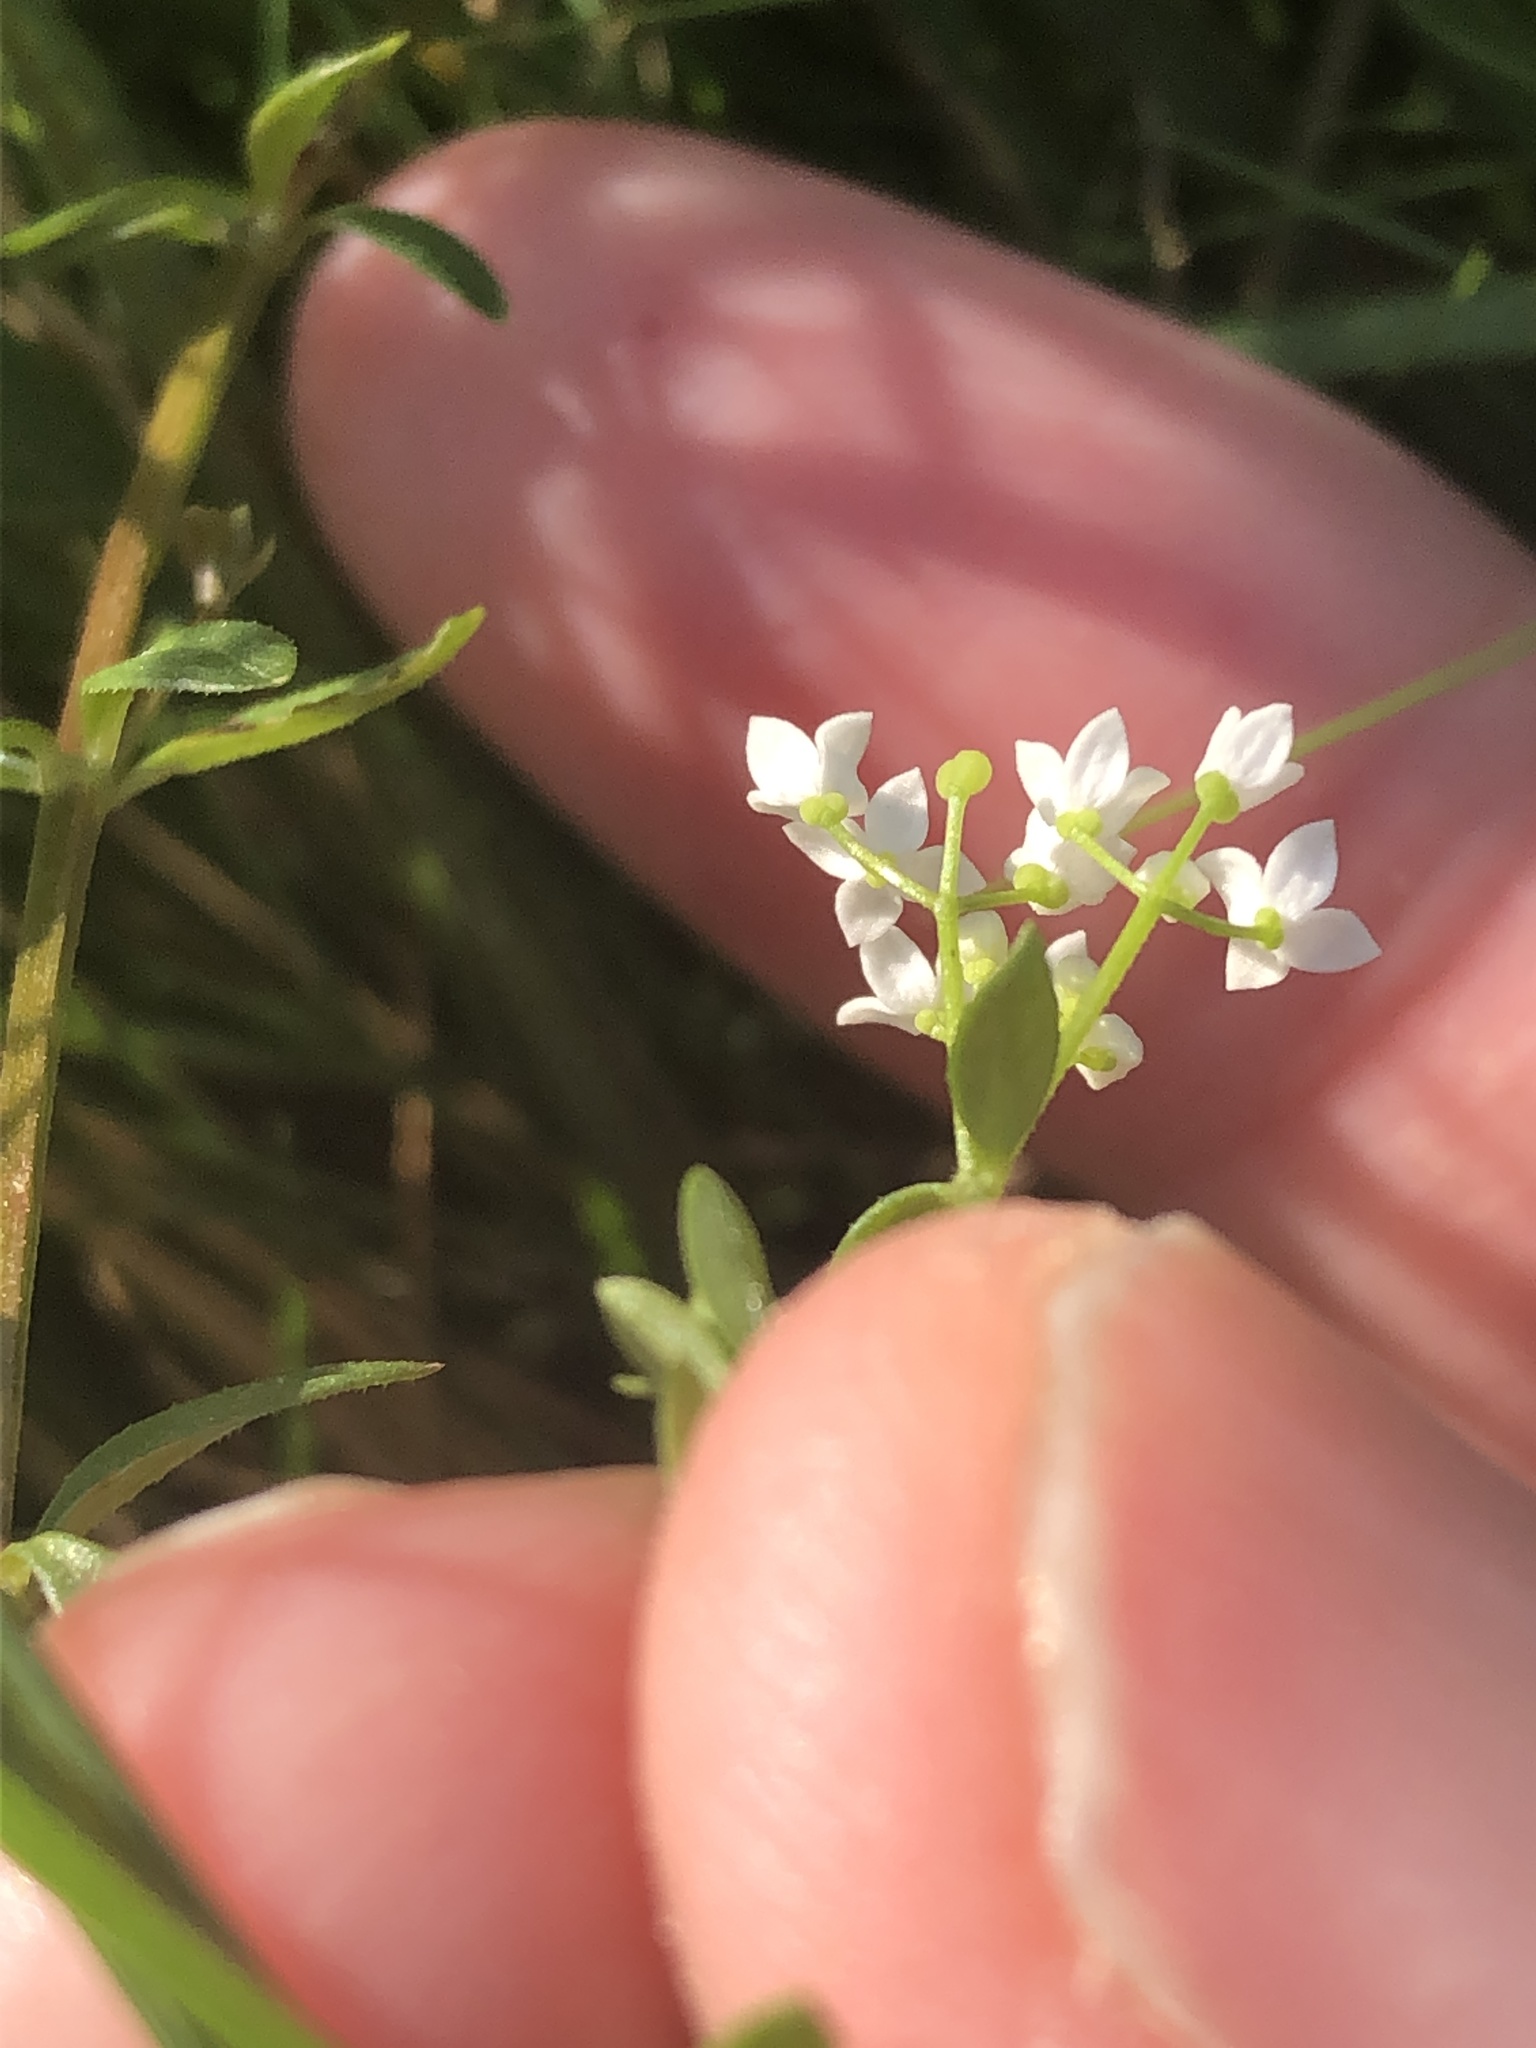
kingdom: Plantae
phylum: Tracheophyta
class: Magnoliopsida
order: Gentianales
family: Rubiaceae
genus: Galium
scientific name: Galium palustre
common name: Common marsh-bedstraw
